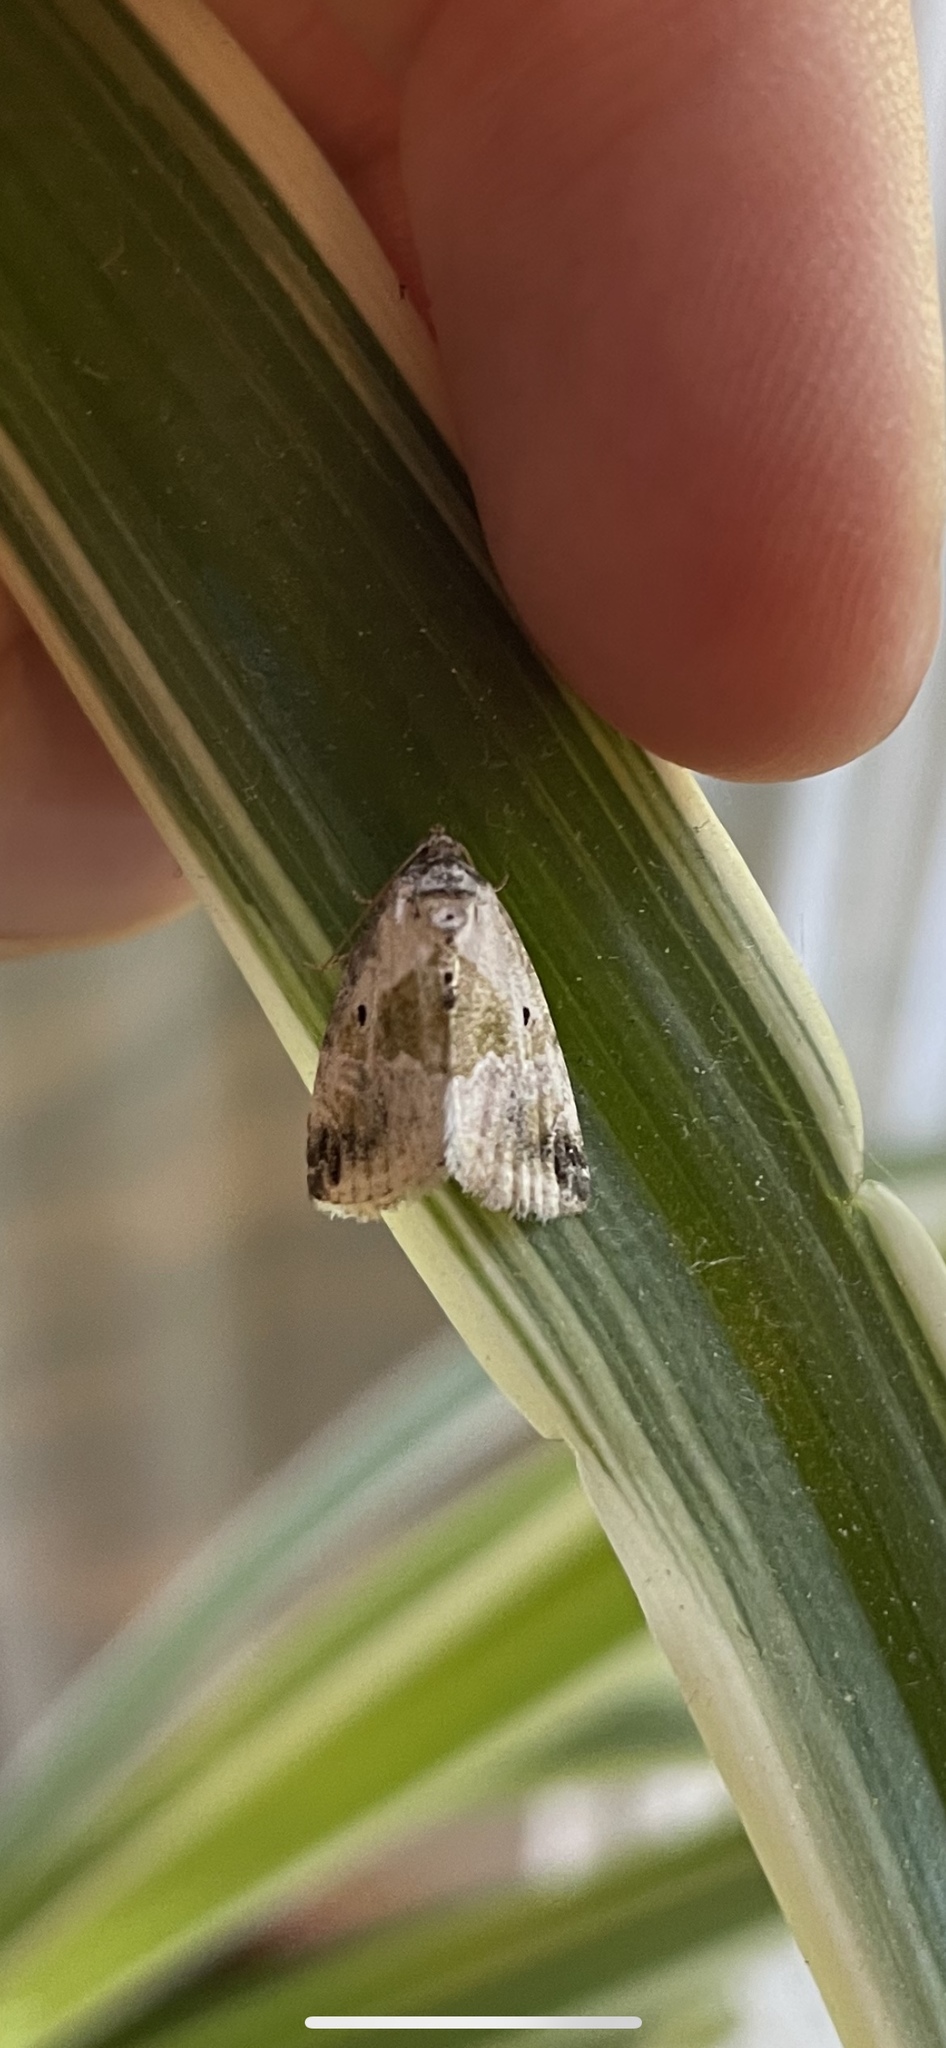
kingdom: Animalia
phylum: Arthropoda
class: Insecta
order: Lepidoptera
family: Noctuidae
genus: Maliattha
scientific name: Maliattha synochitis
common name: Black-dotted glyph
